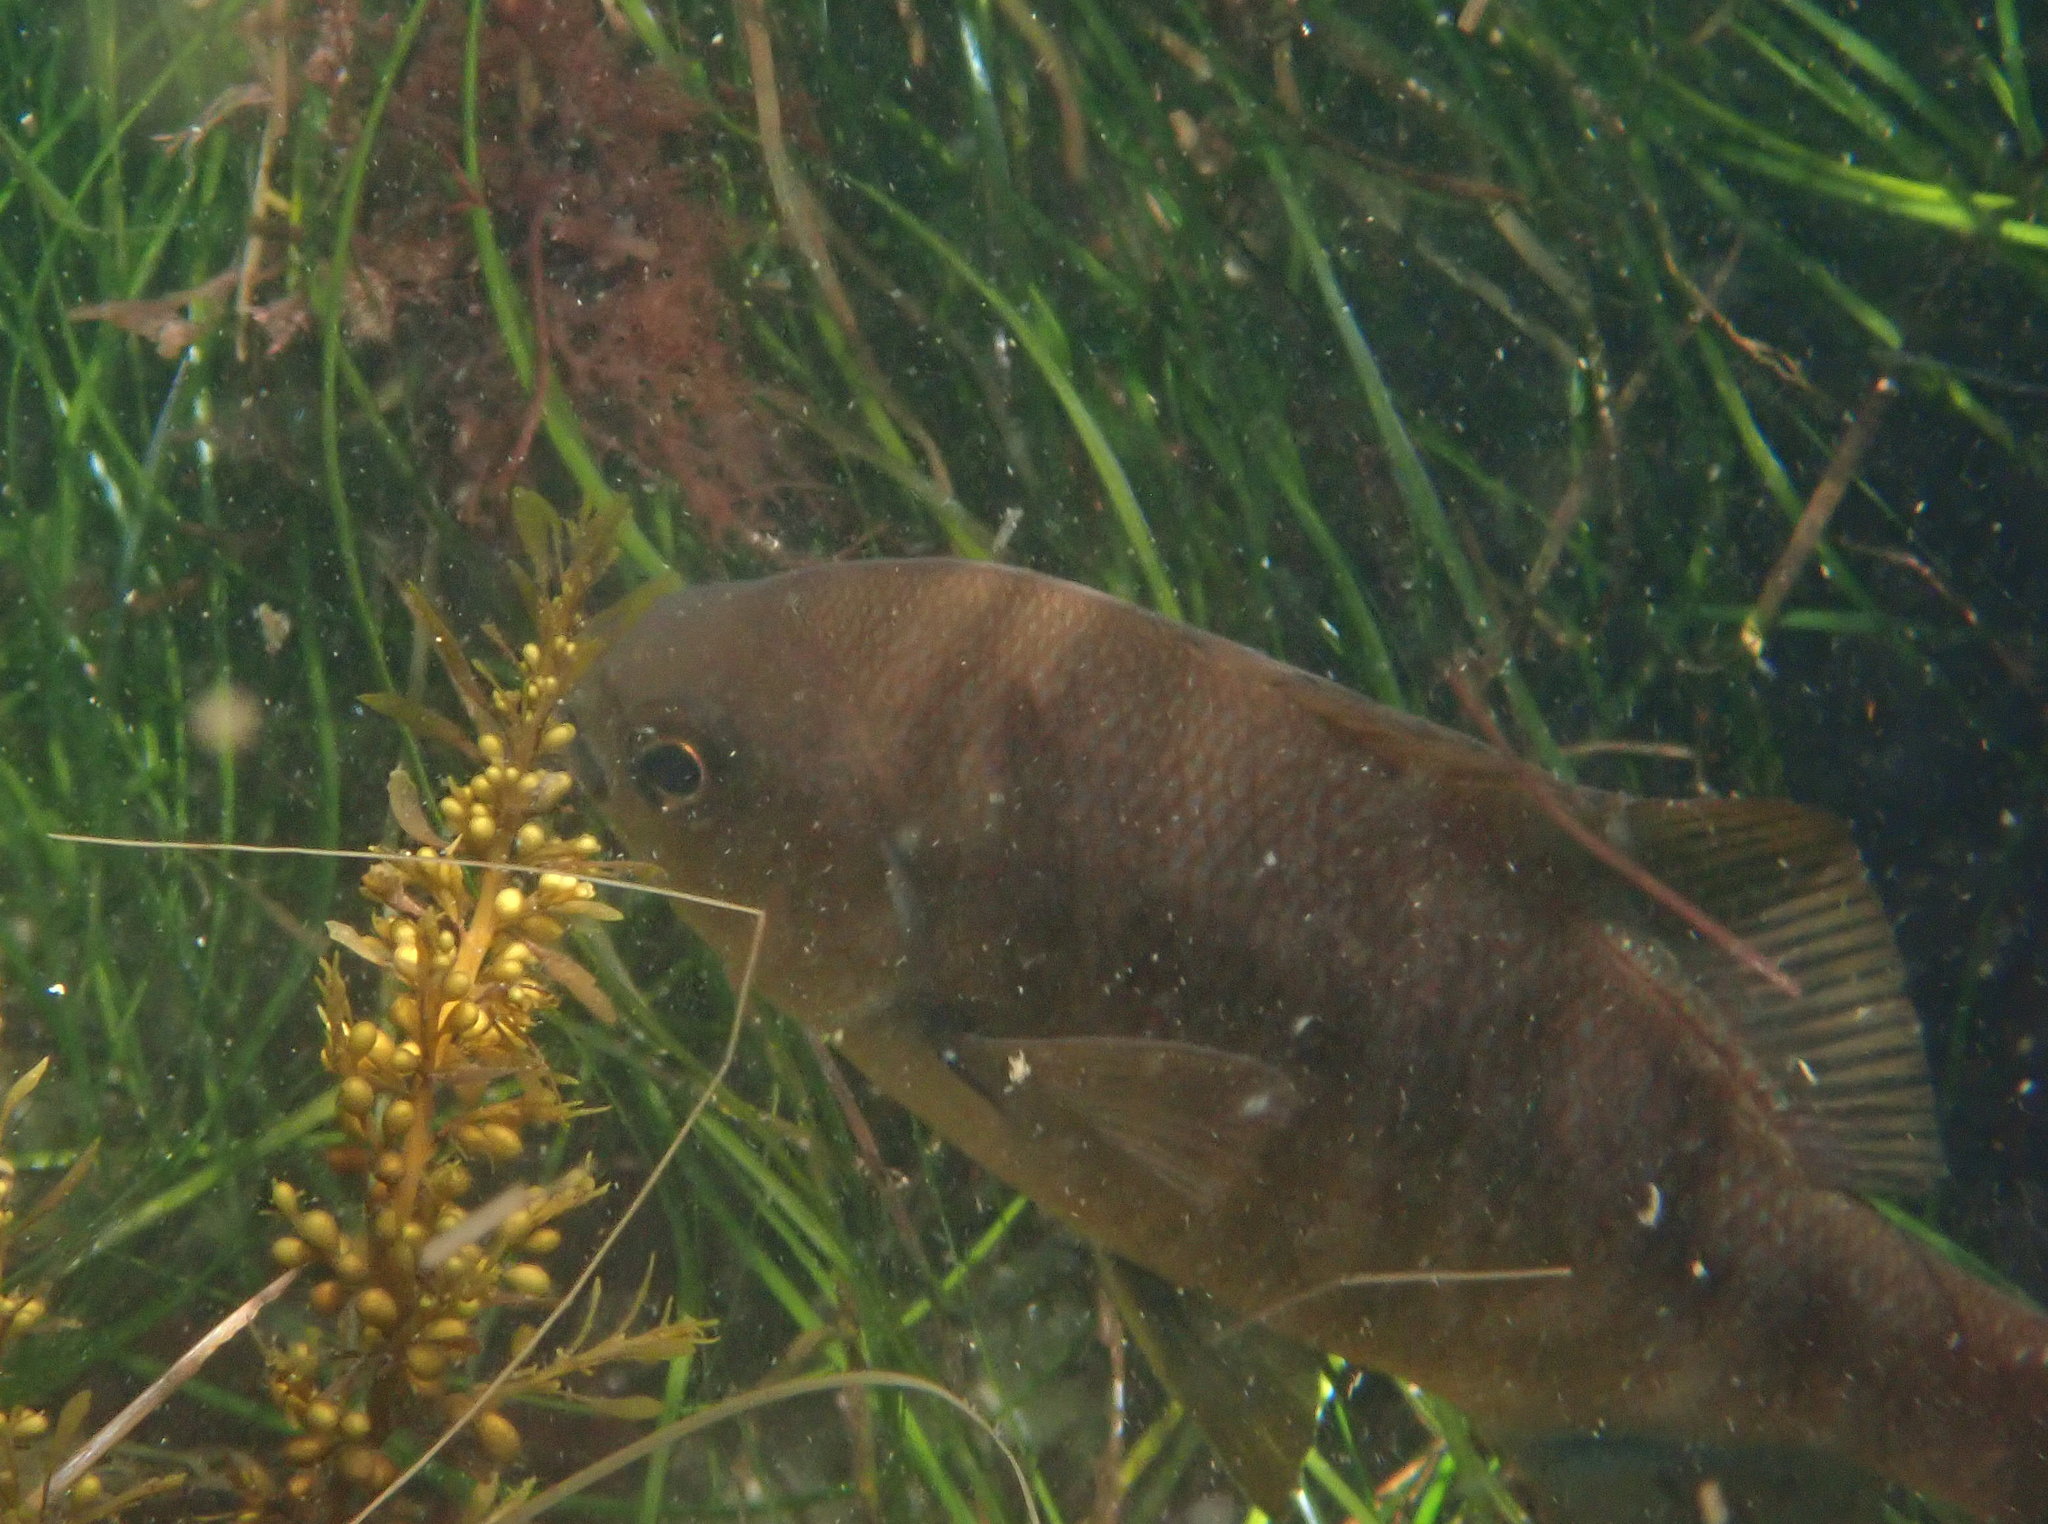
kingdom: Animalia
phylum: Chordata
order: Perciformes
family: Embiotocidae
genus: Embiotoca
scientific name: Embiotoca jacksoni
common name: Black perch
